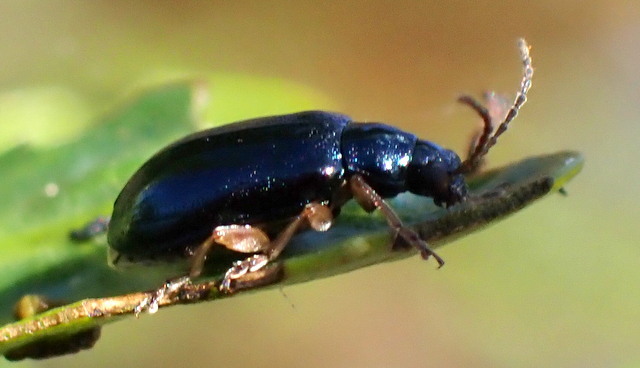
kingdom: Animalia
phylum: Arthropoda
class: Insecta
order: Coleoptera
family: Chrysomelidae
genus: Lysathia
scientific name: Lysathia ludoviciana
